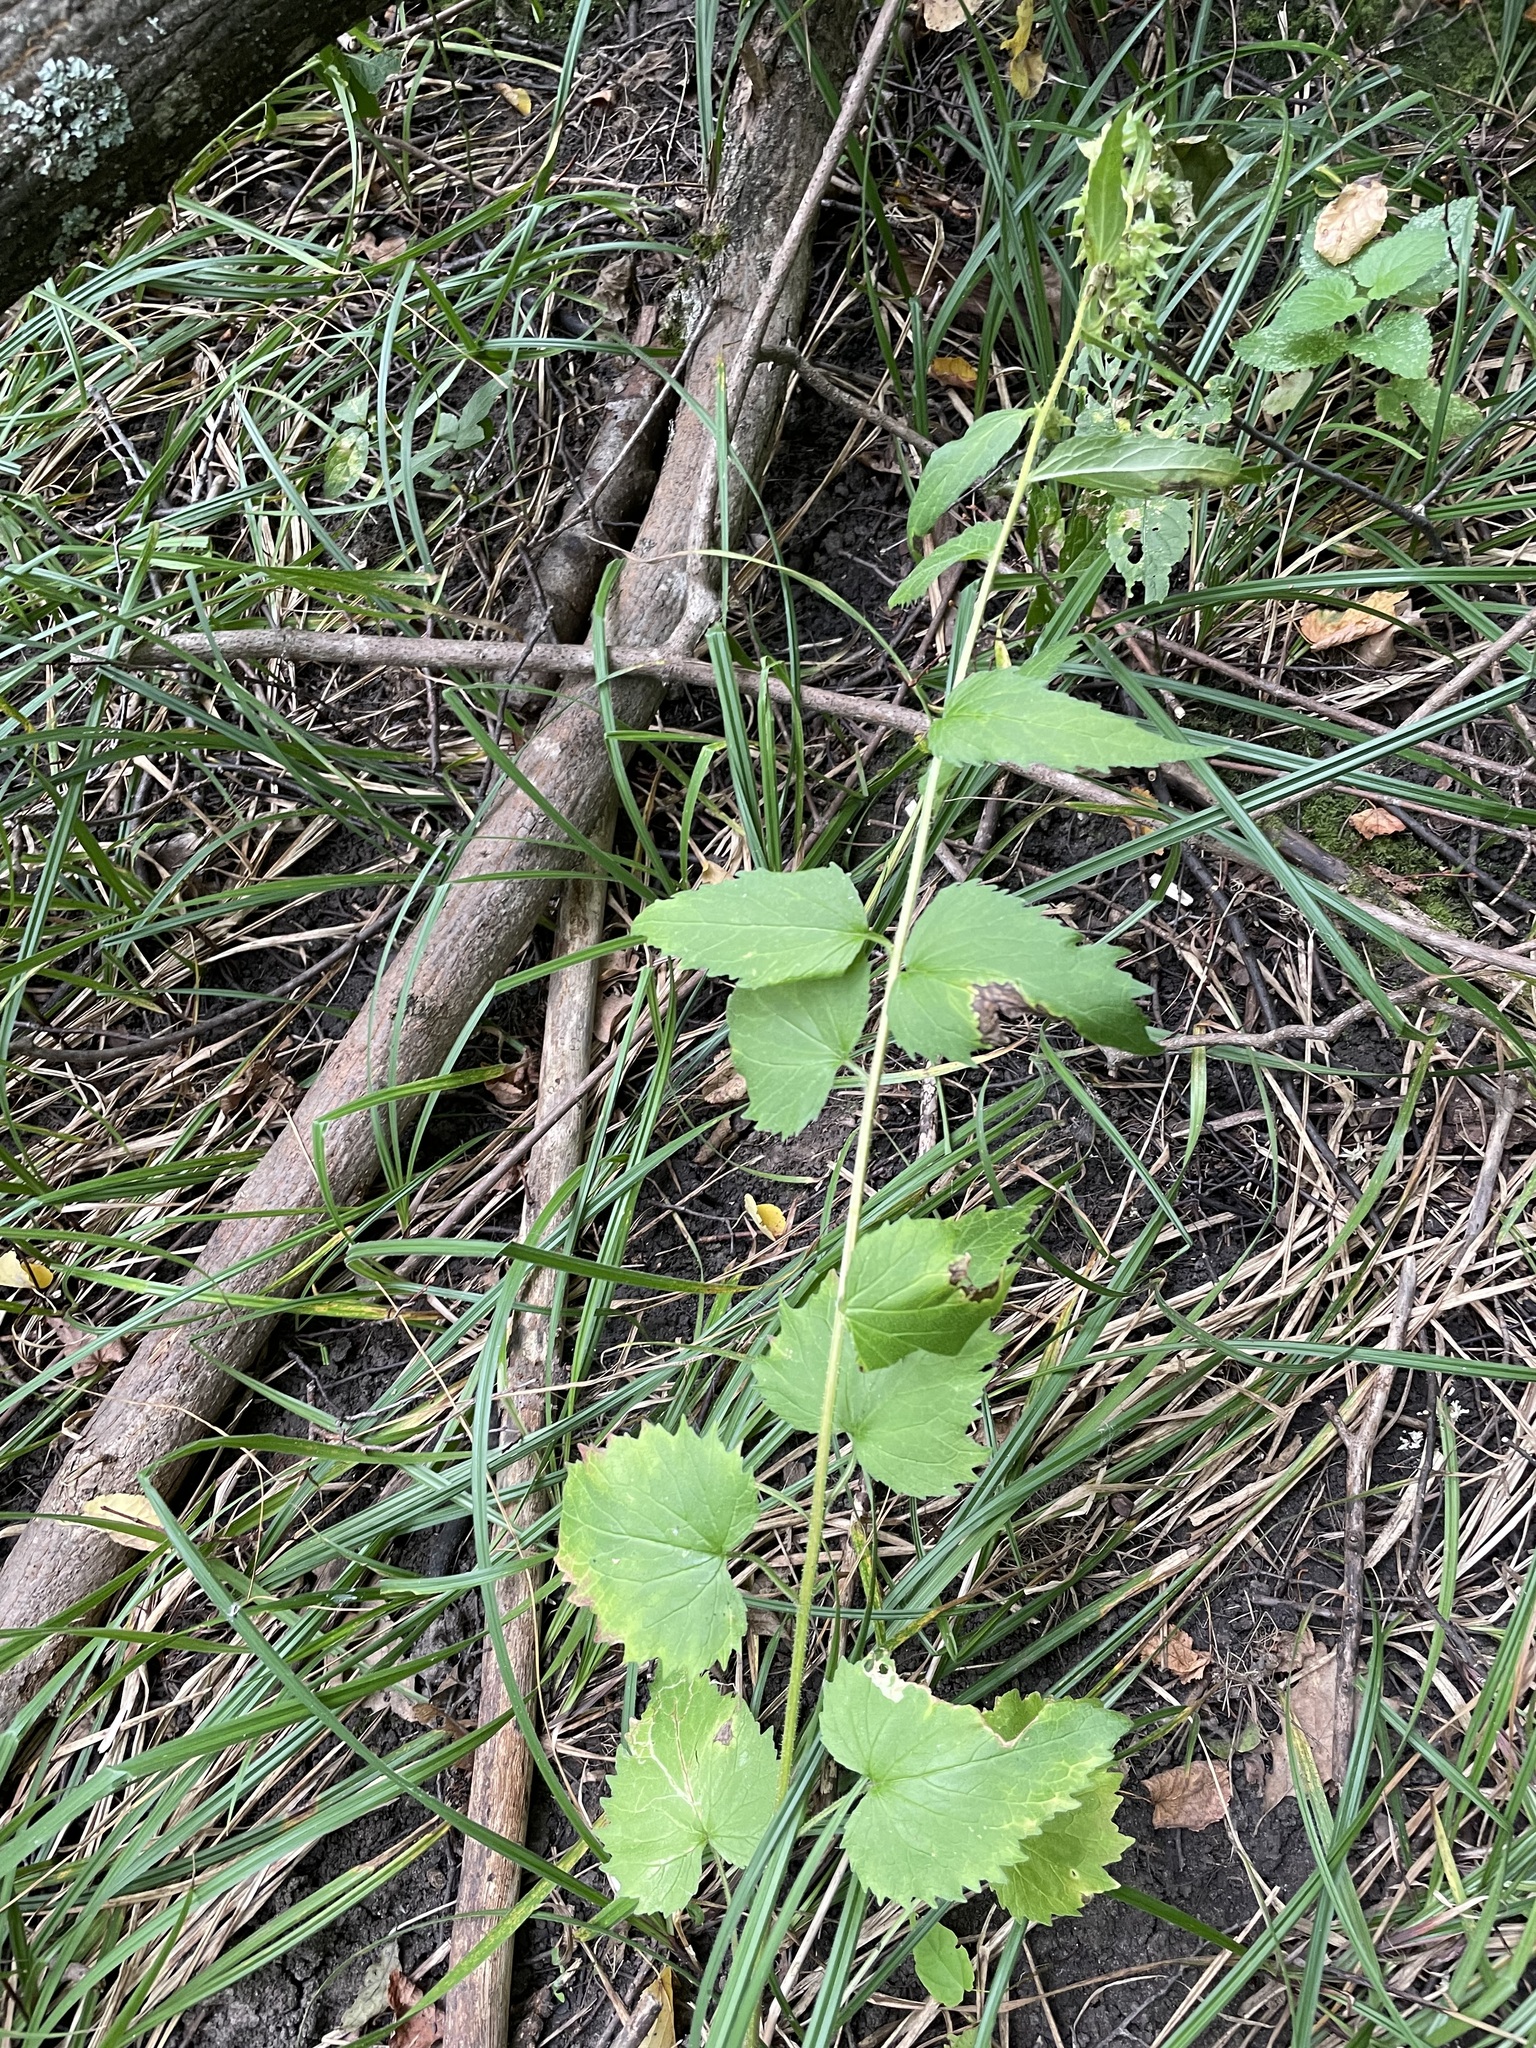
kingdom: Plantae
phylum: Tracheophyta
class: Magnoliopsida
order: Asterales
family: Campanulaceae
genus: Campanula
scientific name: Campanula trachelium
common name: Nettle-leaved bellflower
